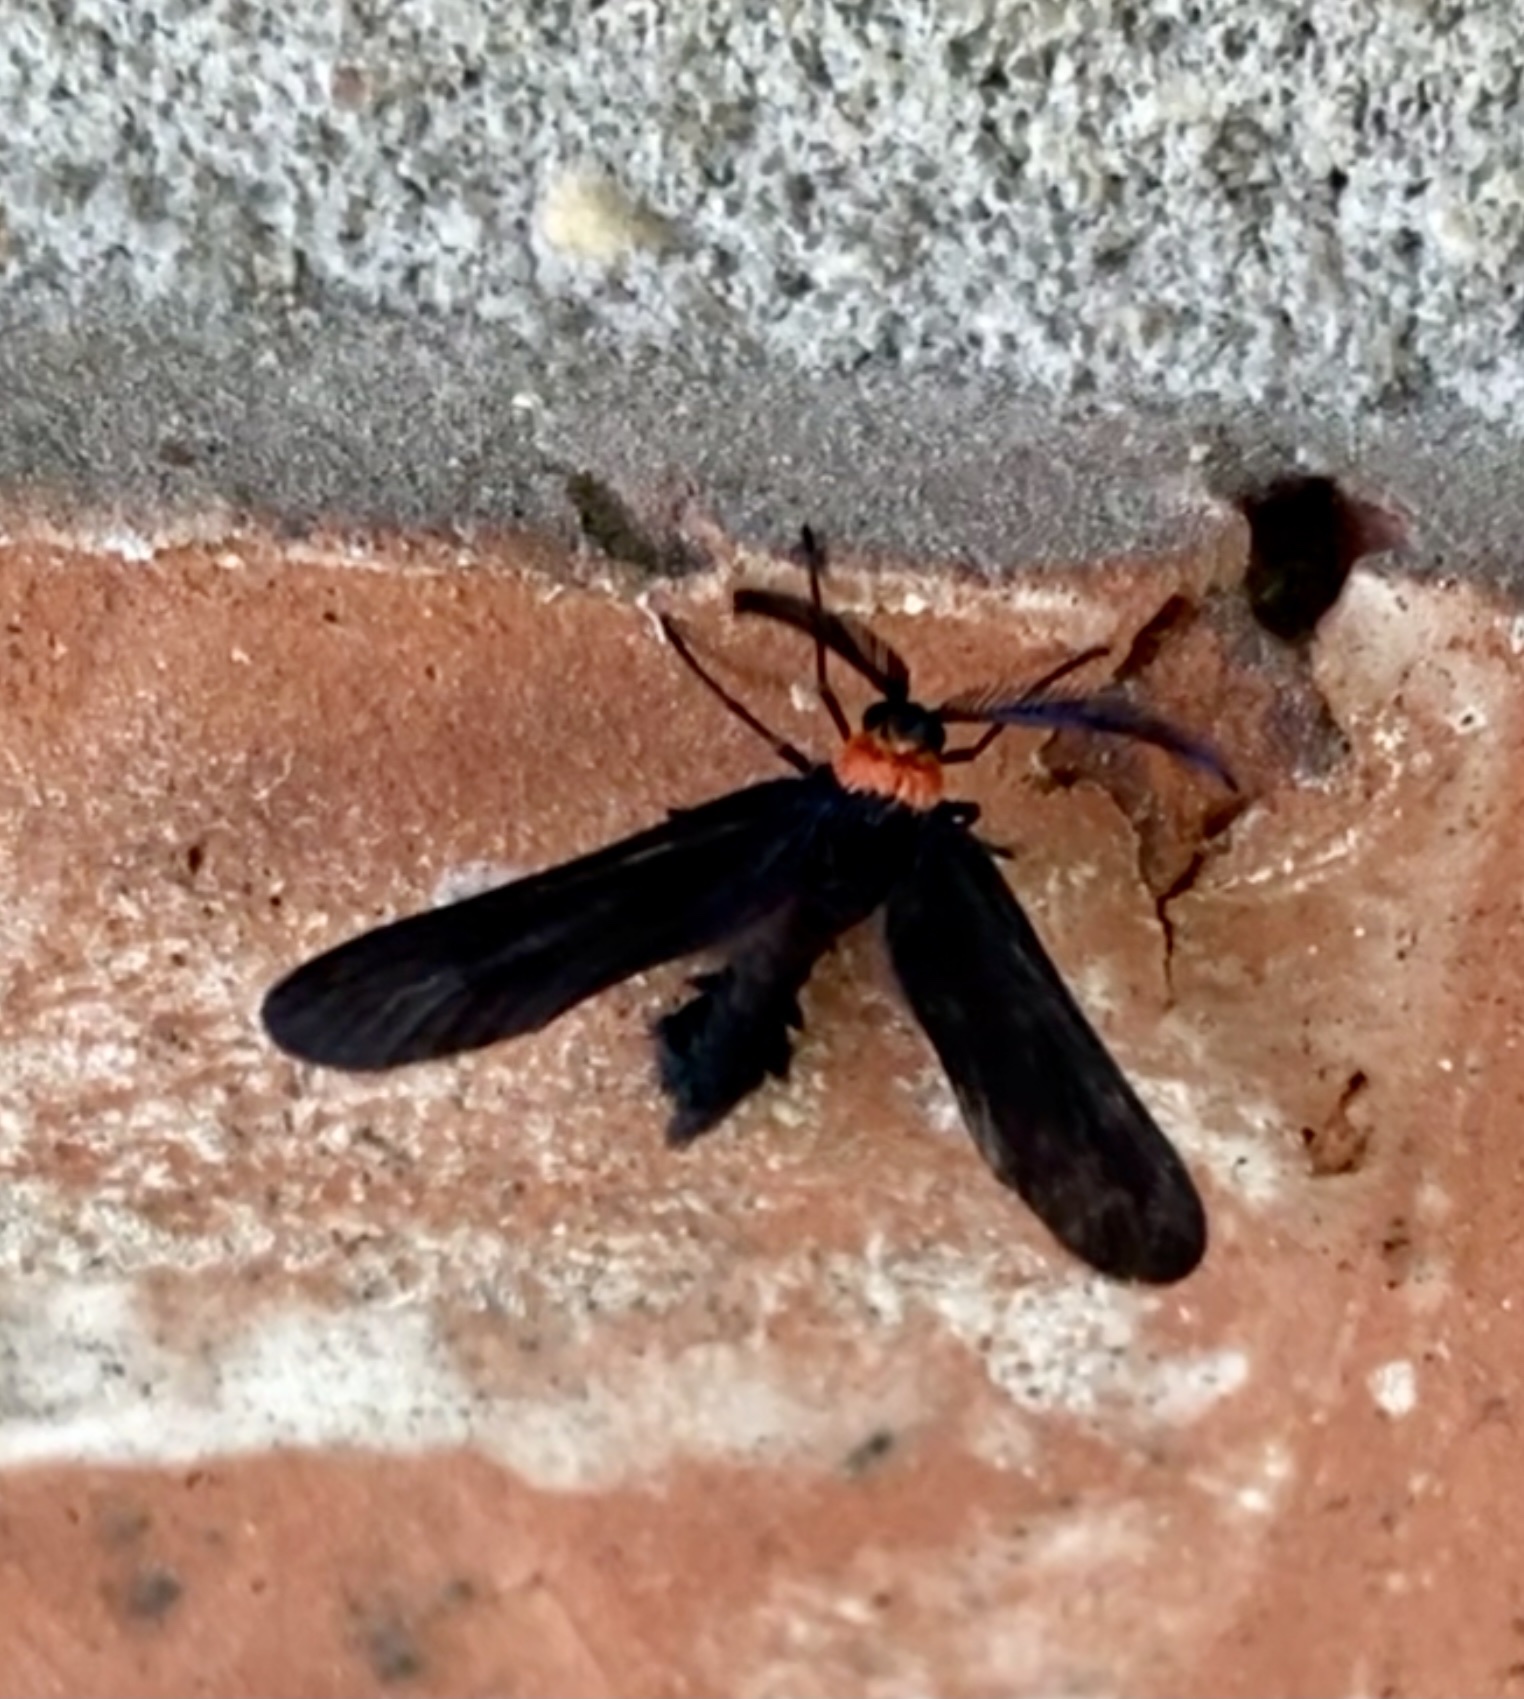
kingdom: Animalia
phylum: Arthropoda
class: Insecta
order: Lepidoptera
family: Zygaenidae
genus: Harrisina
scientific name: Harrisina americana
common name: Grapeleaf skeletonizer moth
